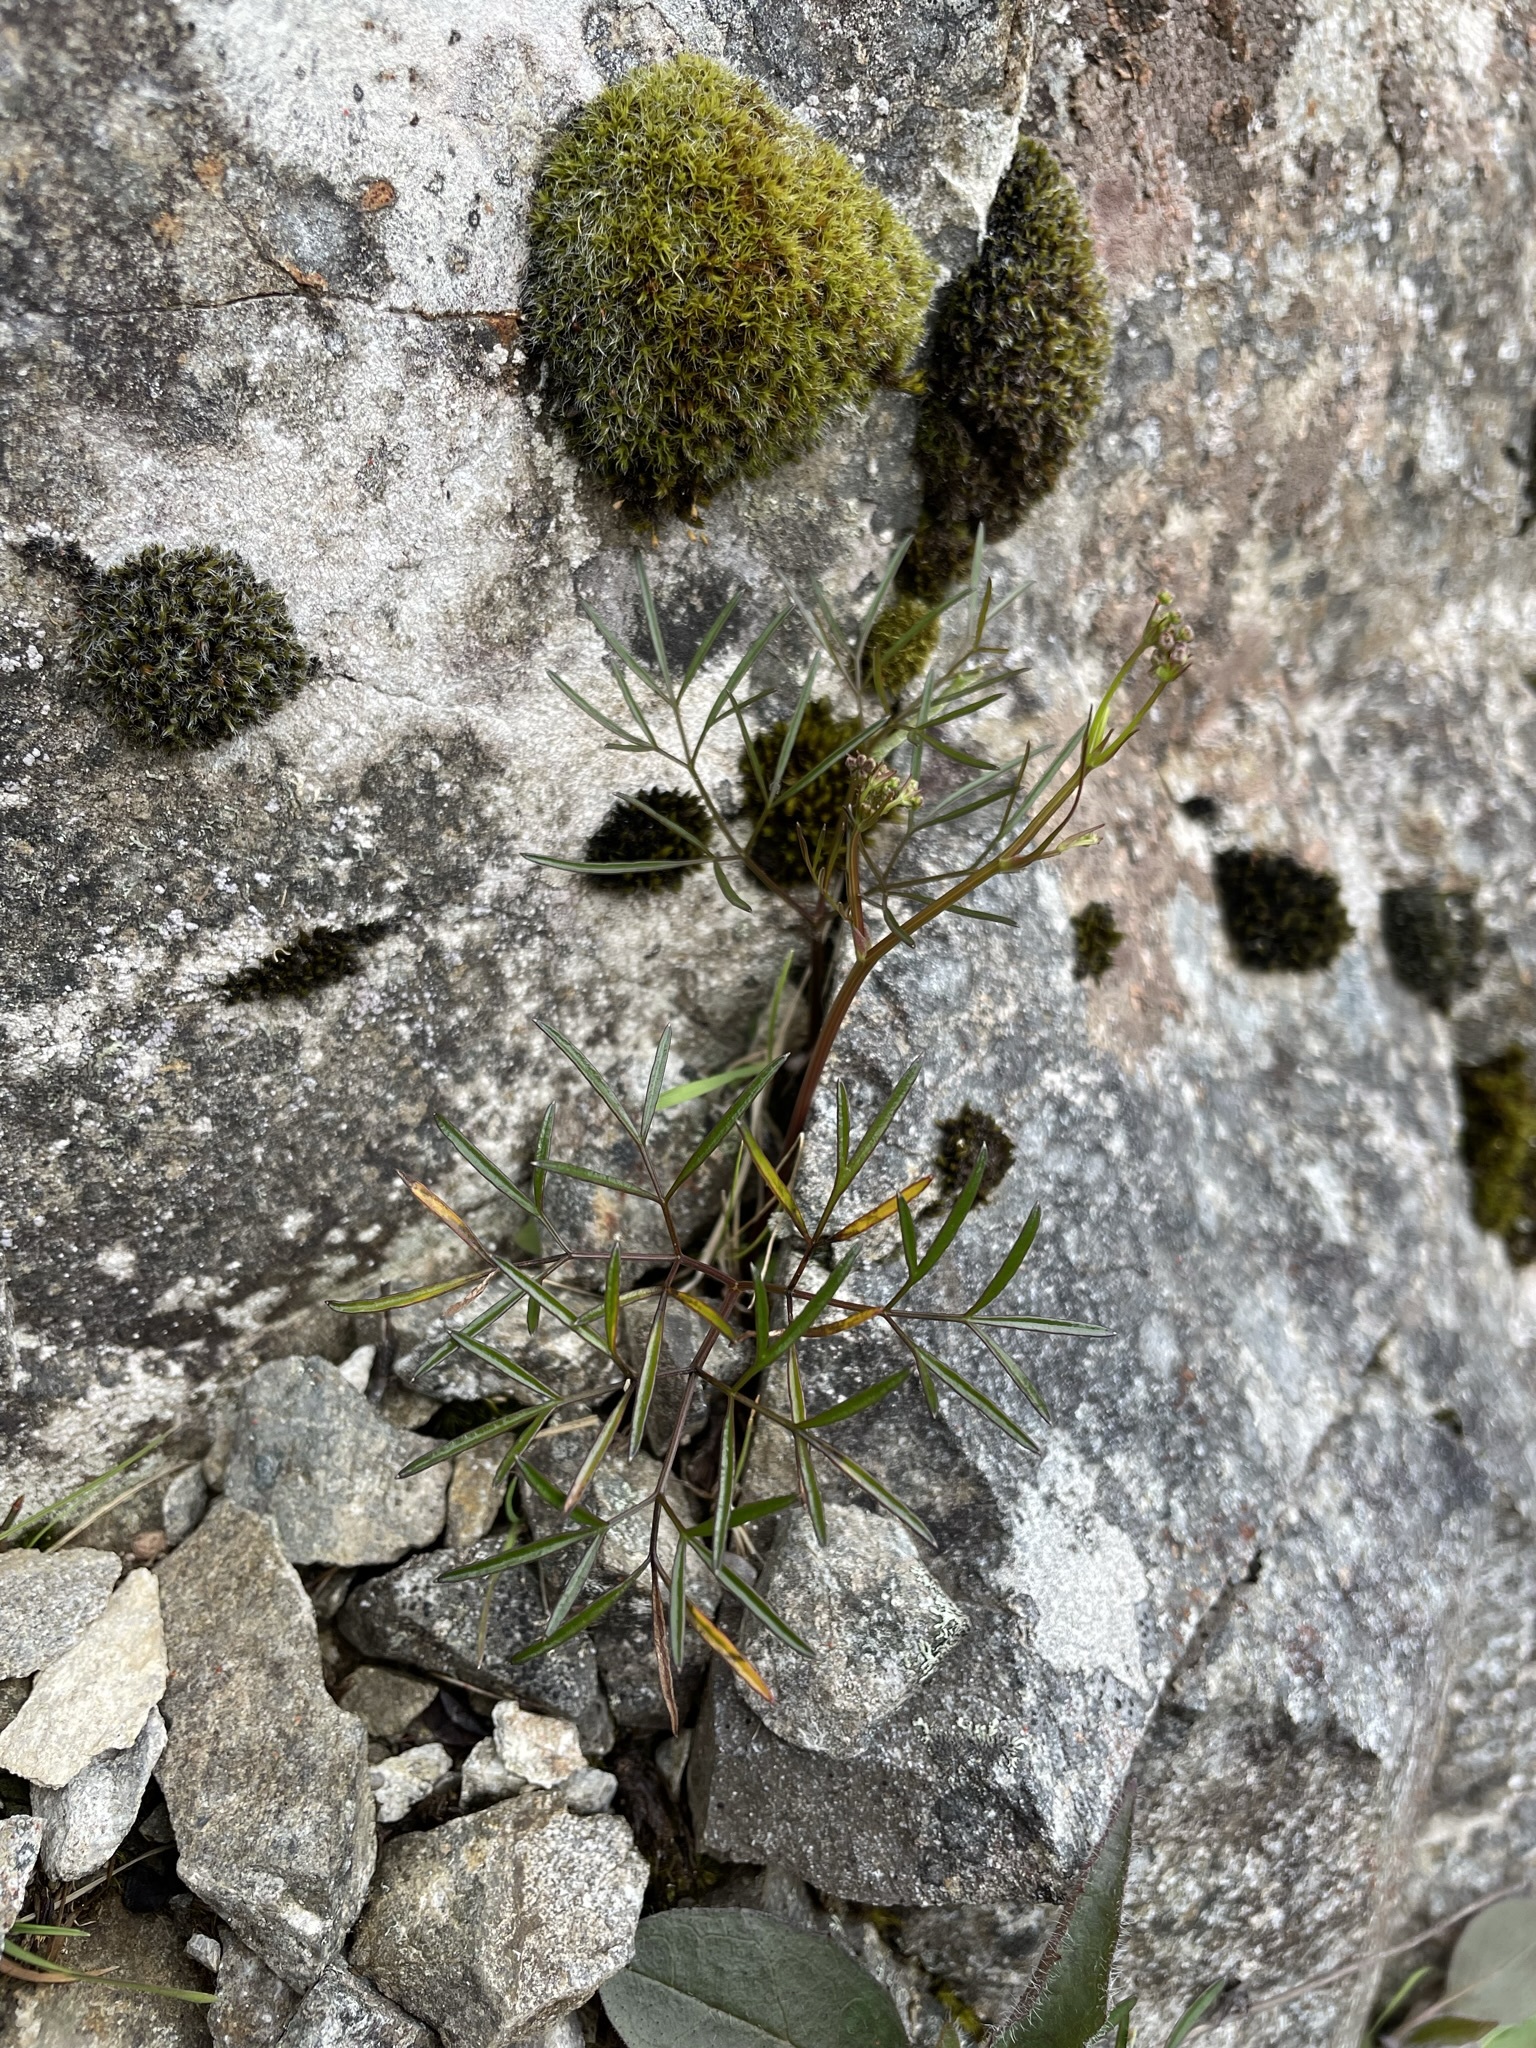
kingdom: Plantae
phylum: Tracheophyta
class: Magnoliopsida
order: Apiales
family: Apiaceae
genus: Anisotome
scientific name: Anisotome filifolia
